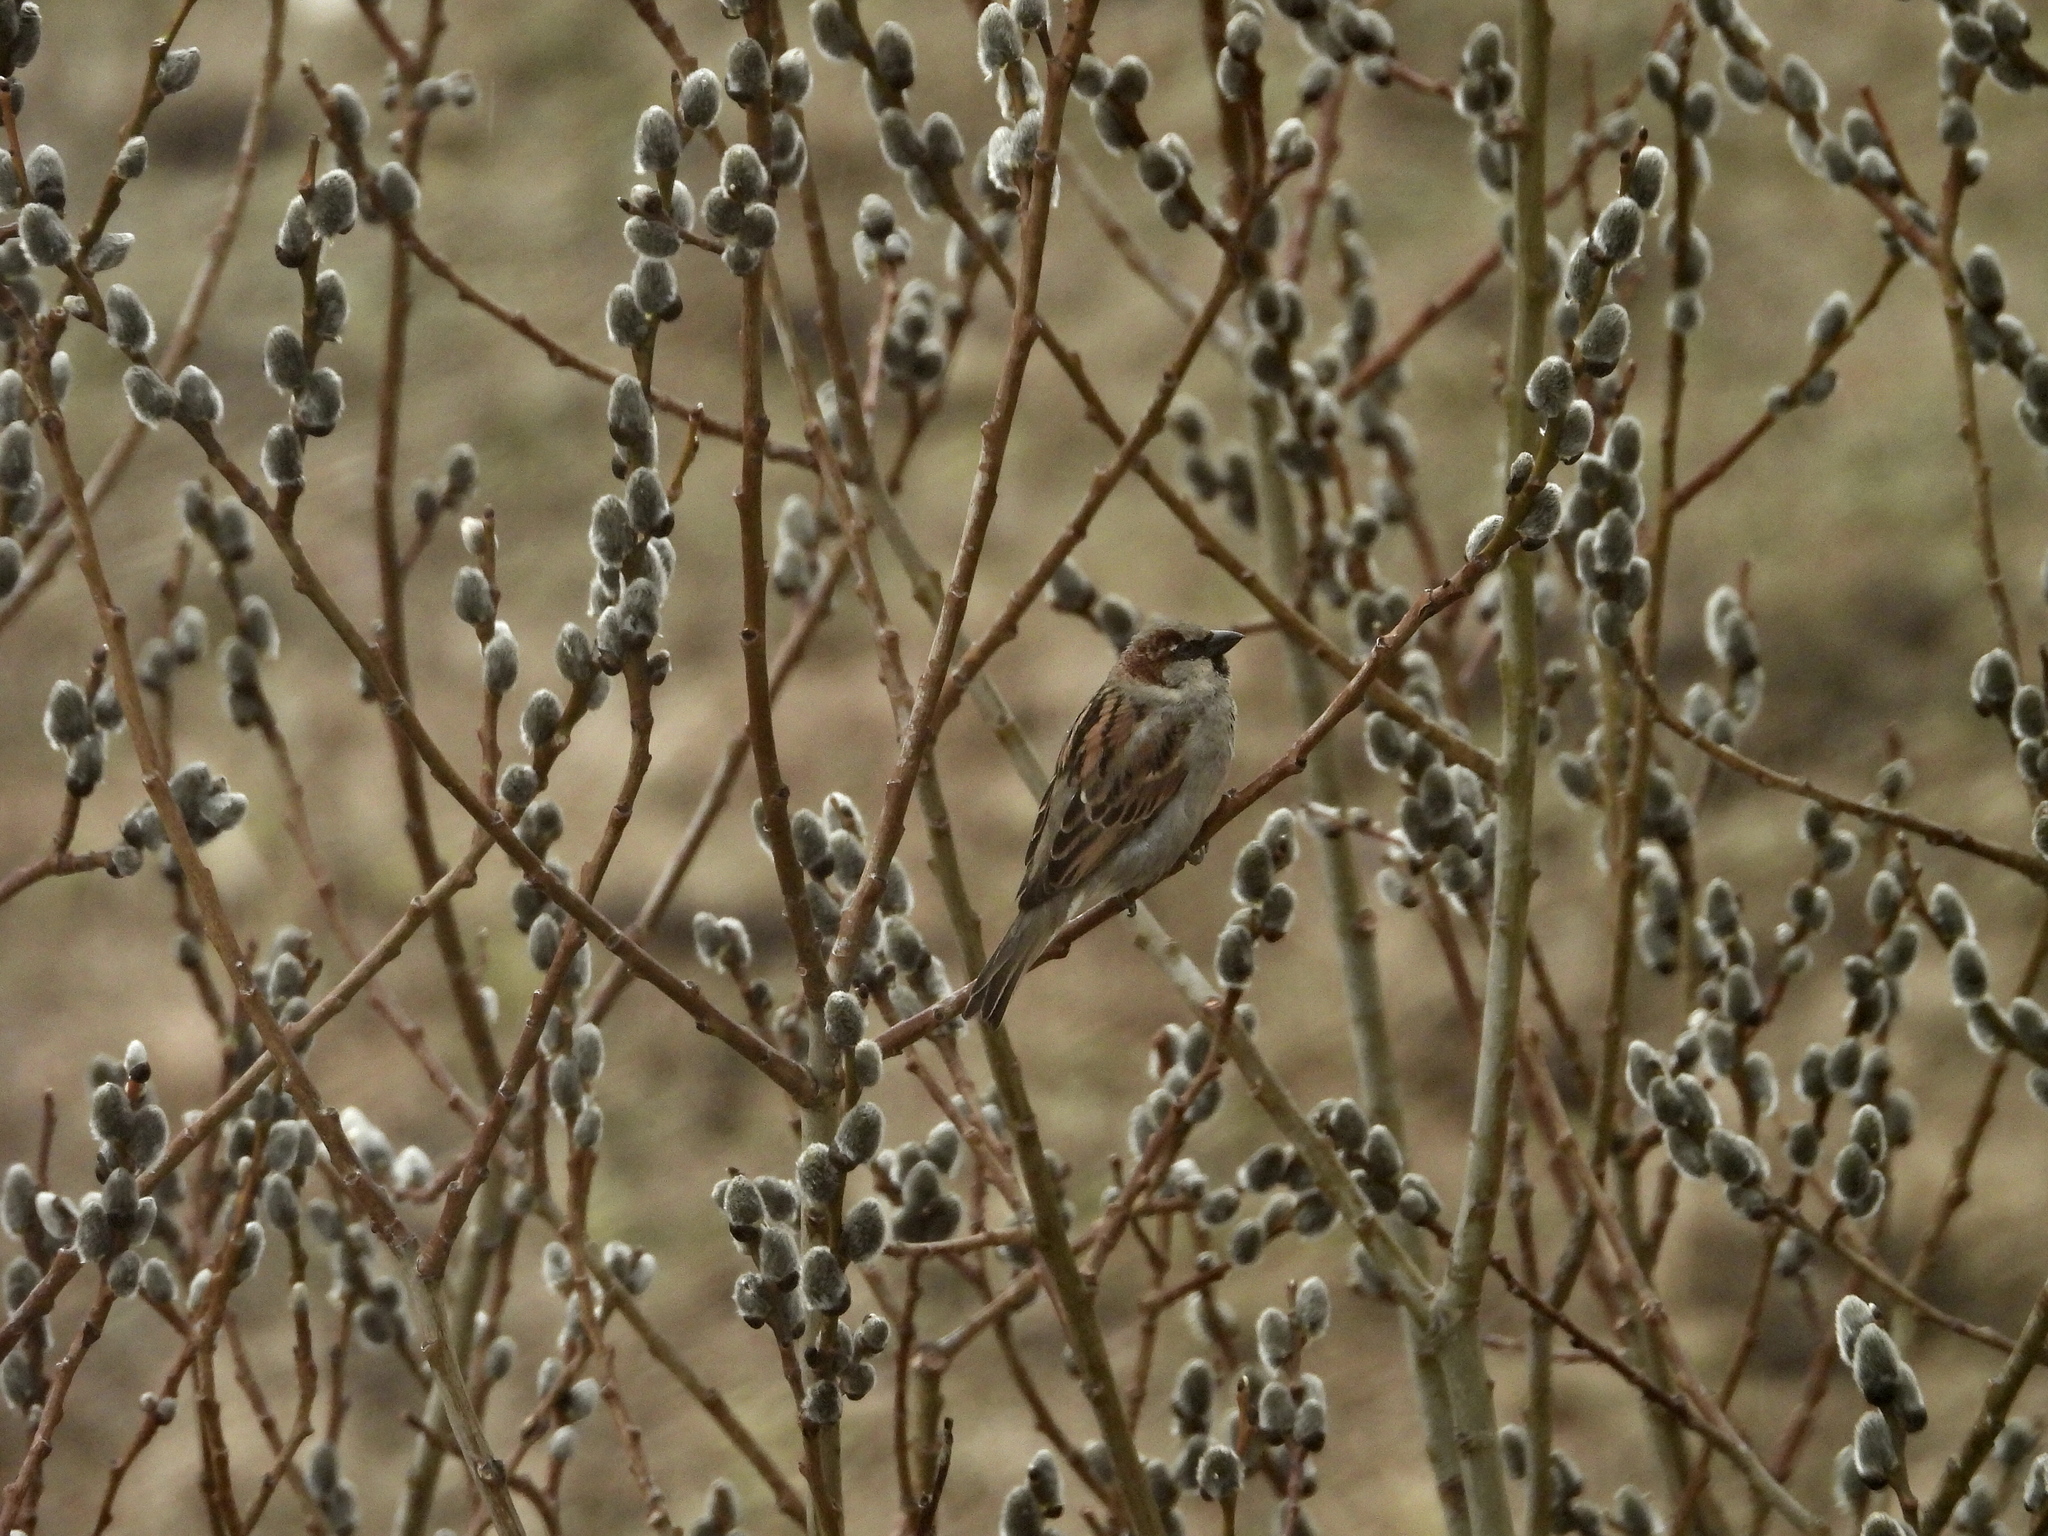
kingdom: Animalia
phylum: Chordata
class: Aves
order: Passeriformes
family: Passeridae
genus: Passer
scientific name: Passer domesticus
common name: House sparrow
